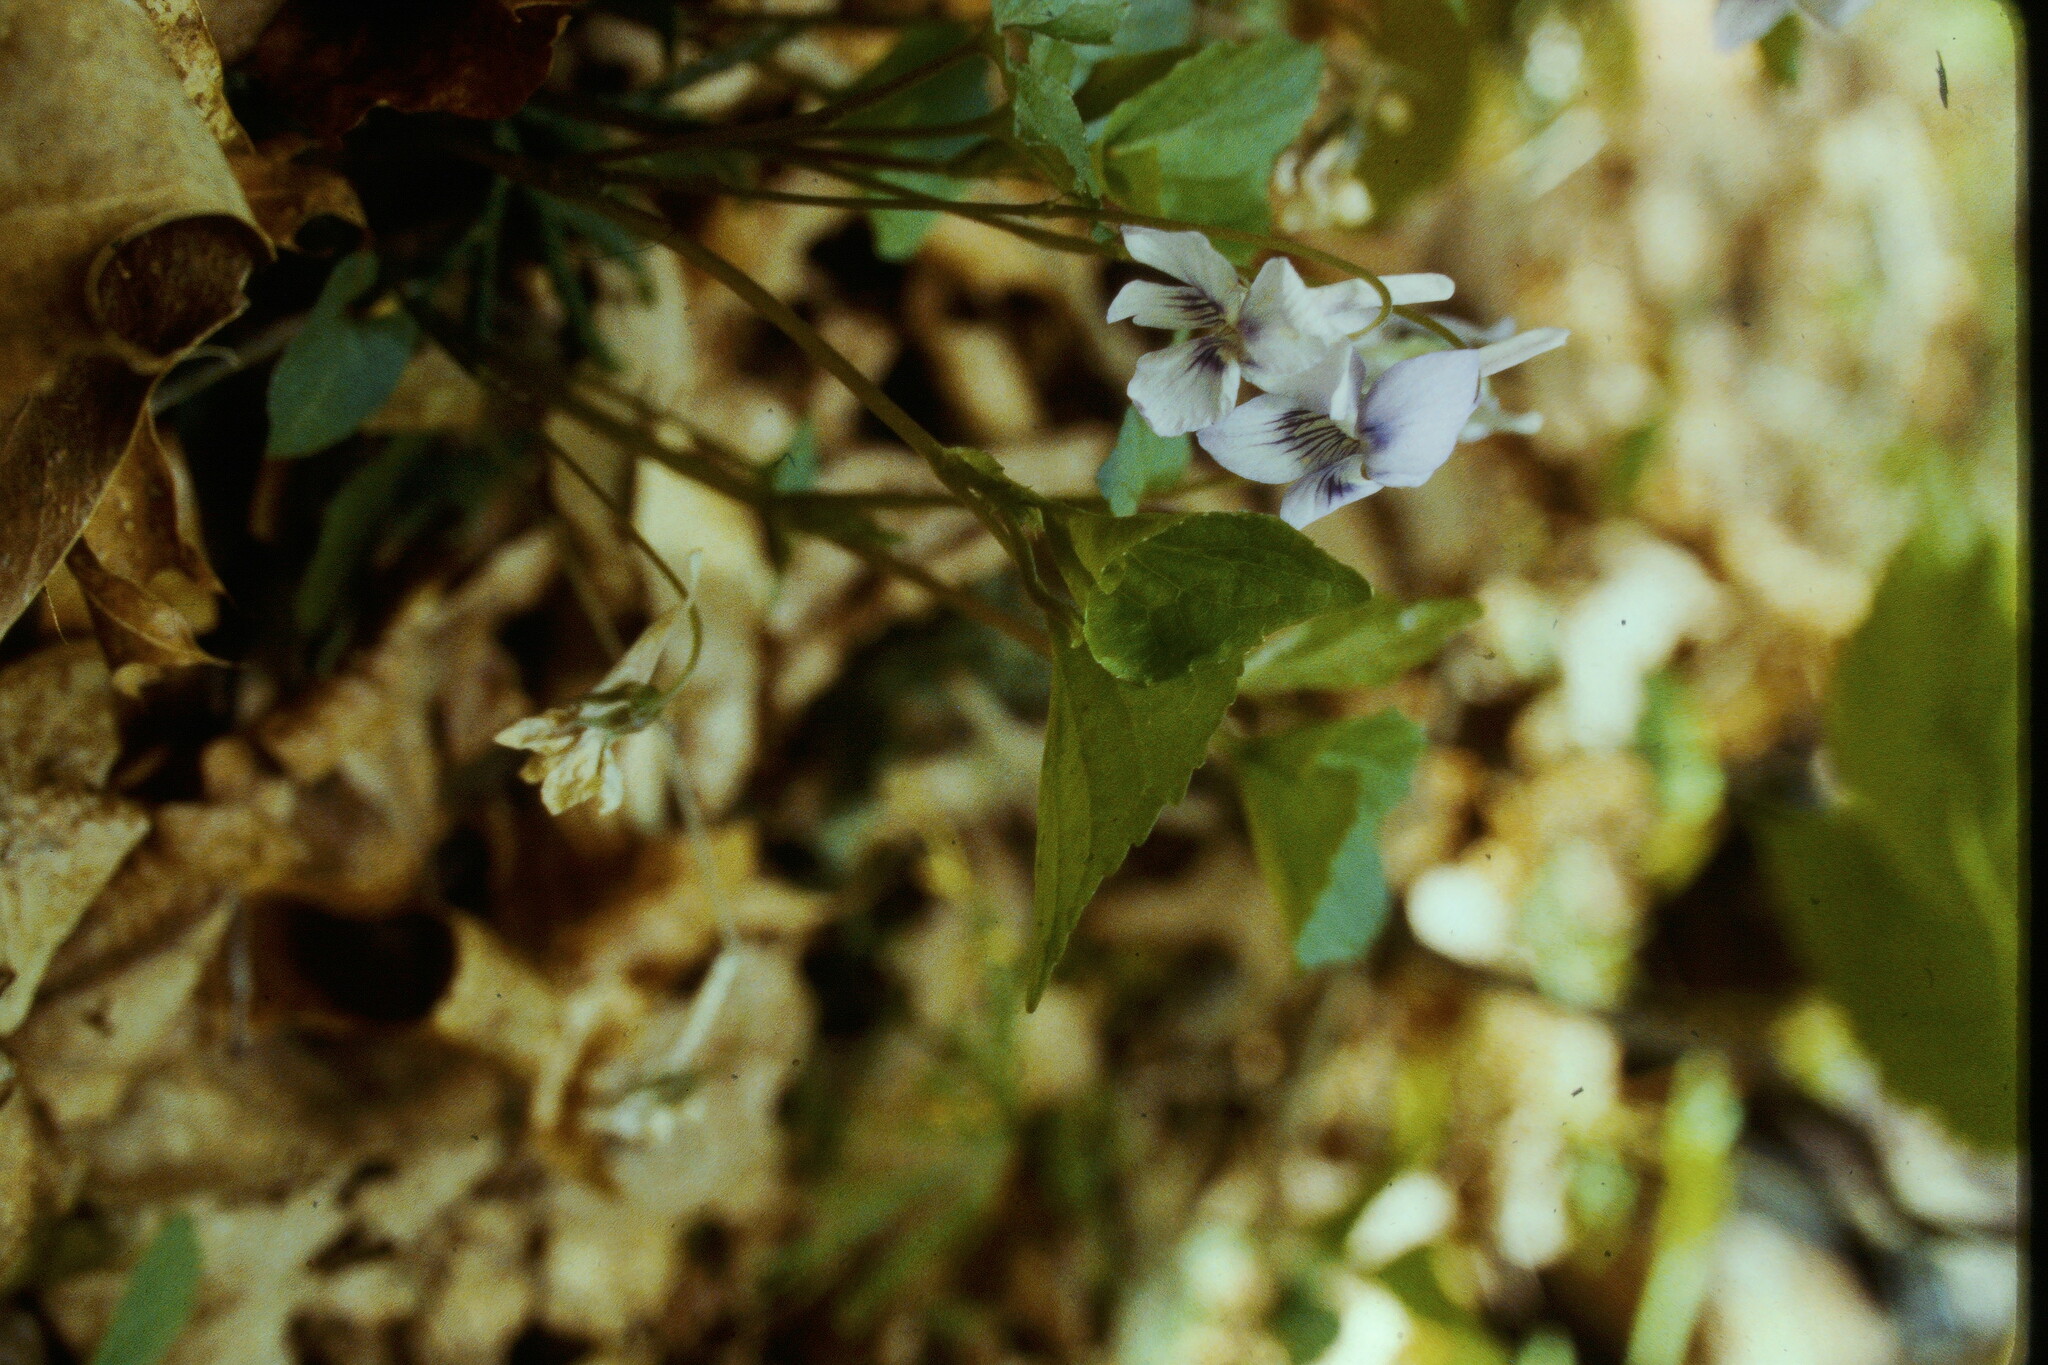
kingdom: Plantae
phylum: Tracheophyta
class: Magnoliopsida
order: Malpighiales
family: Violaceae
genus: Viola
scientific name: Viola rostrata
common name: Long-spur violet
